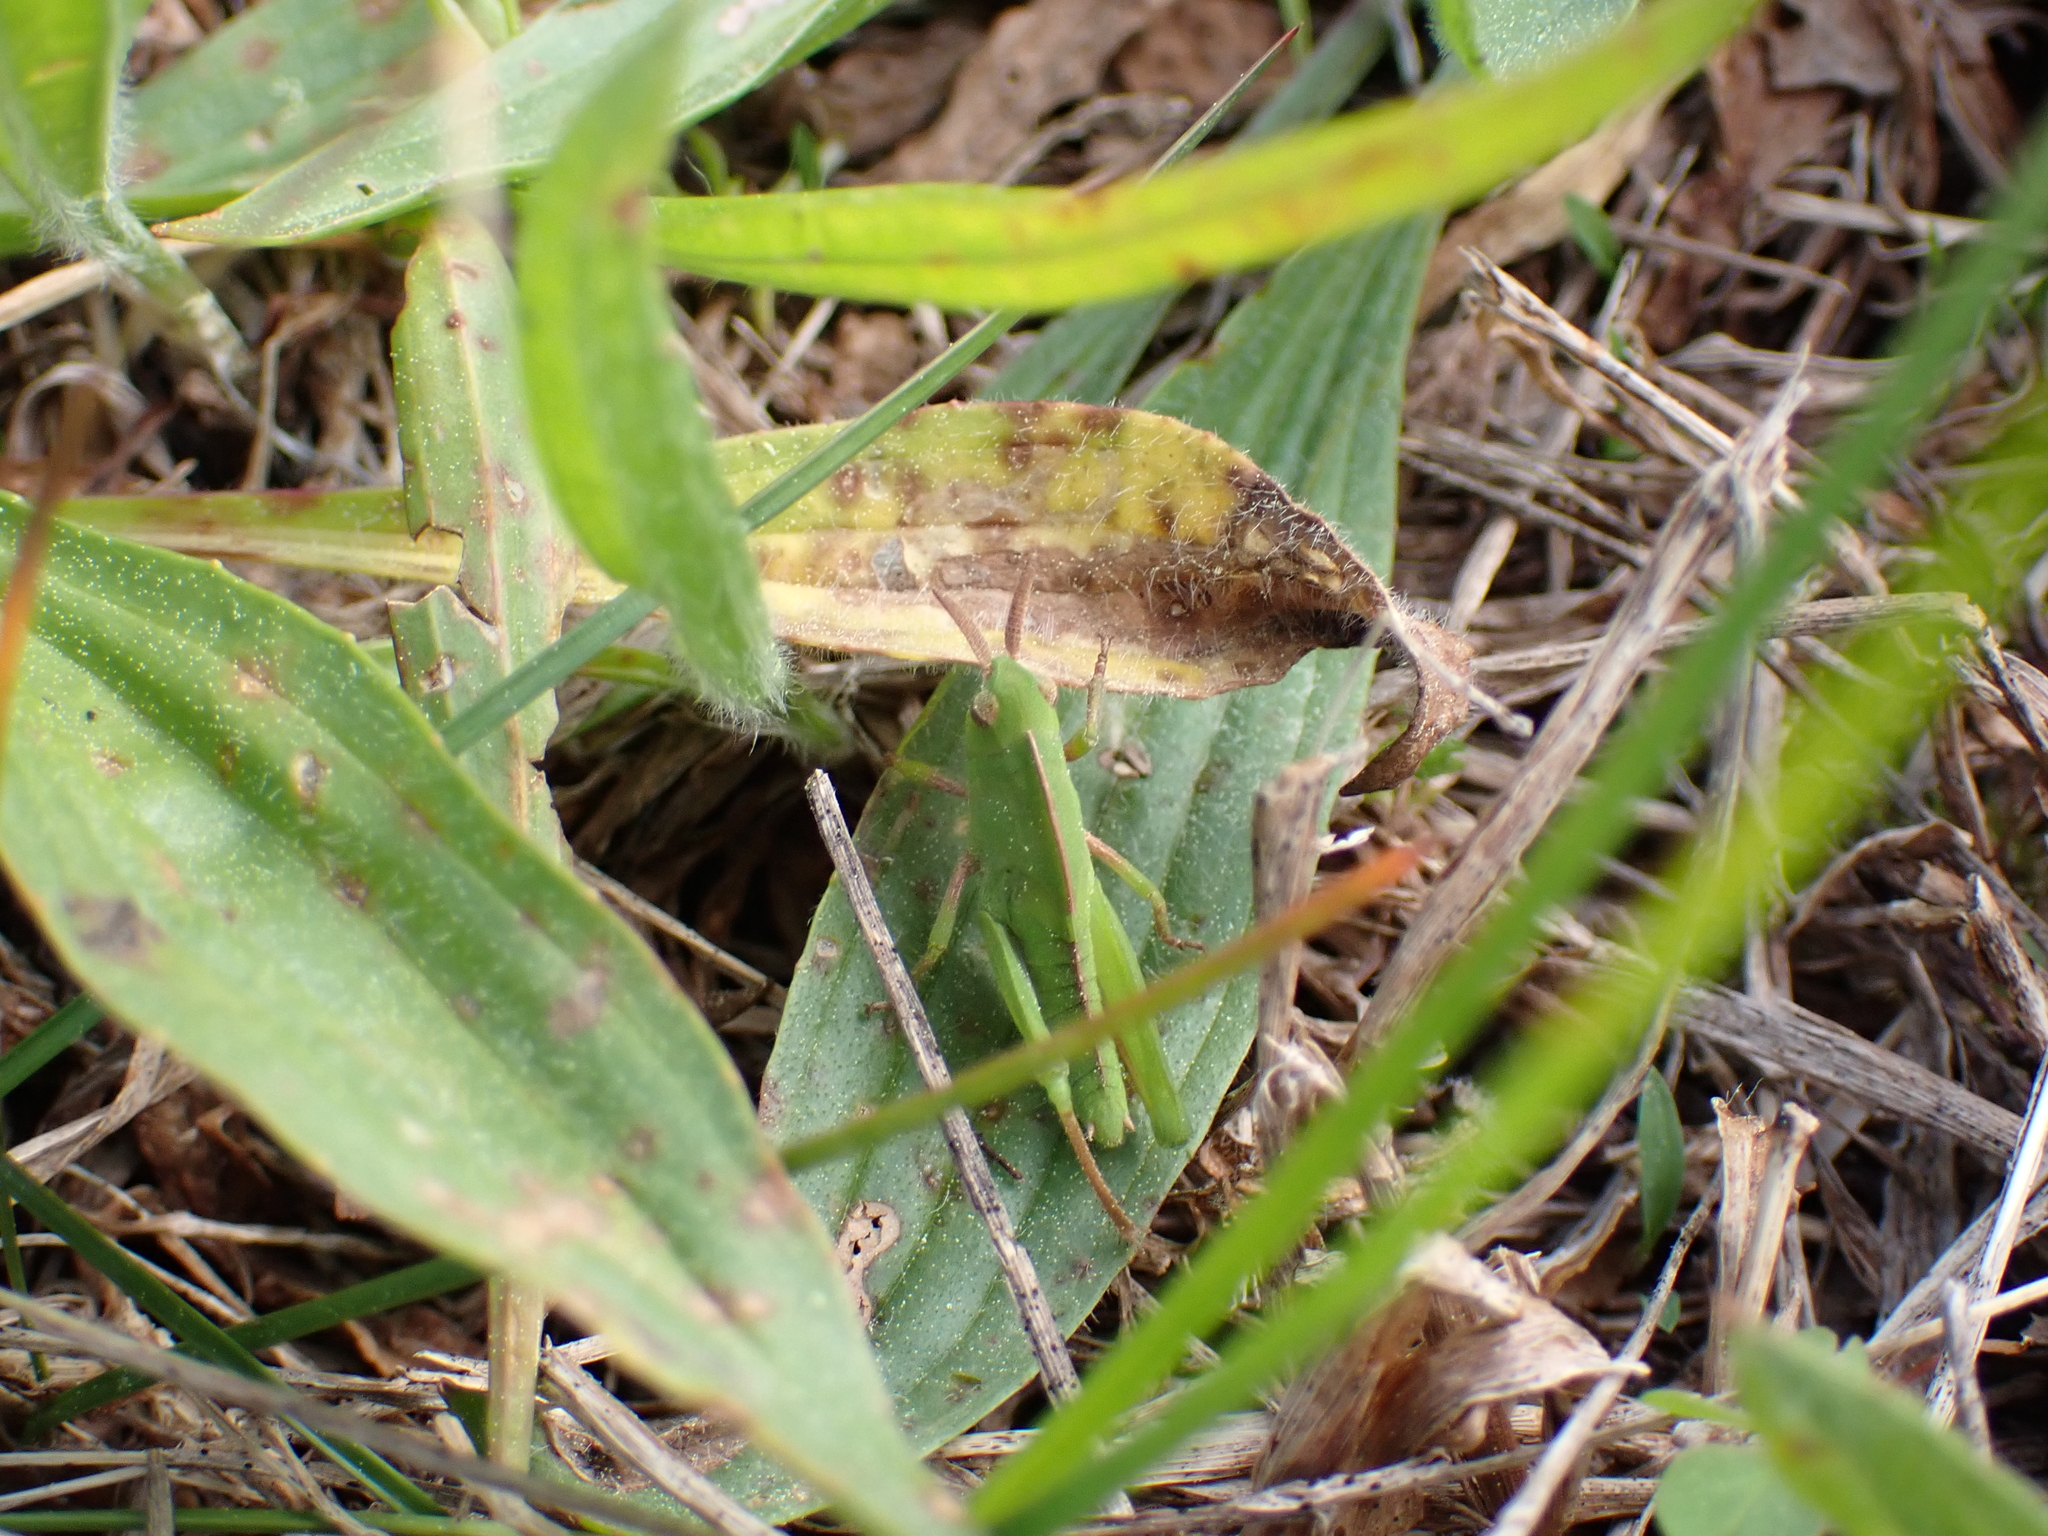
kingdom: Animalia
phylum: Arthropoda
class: Insecta
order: Orthoptera
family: Acrididae
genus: Chortophaga
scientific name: Chortophaga viridifasciata
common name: Green-striped grasshopper
